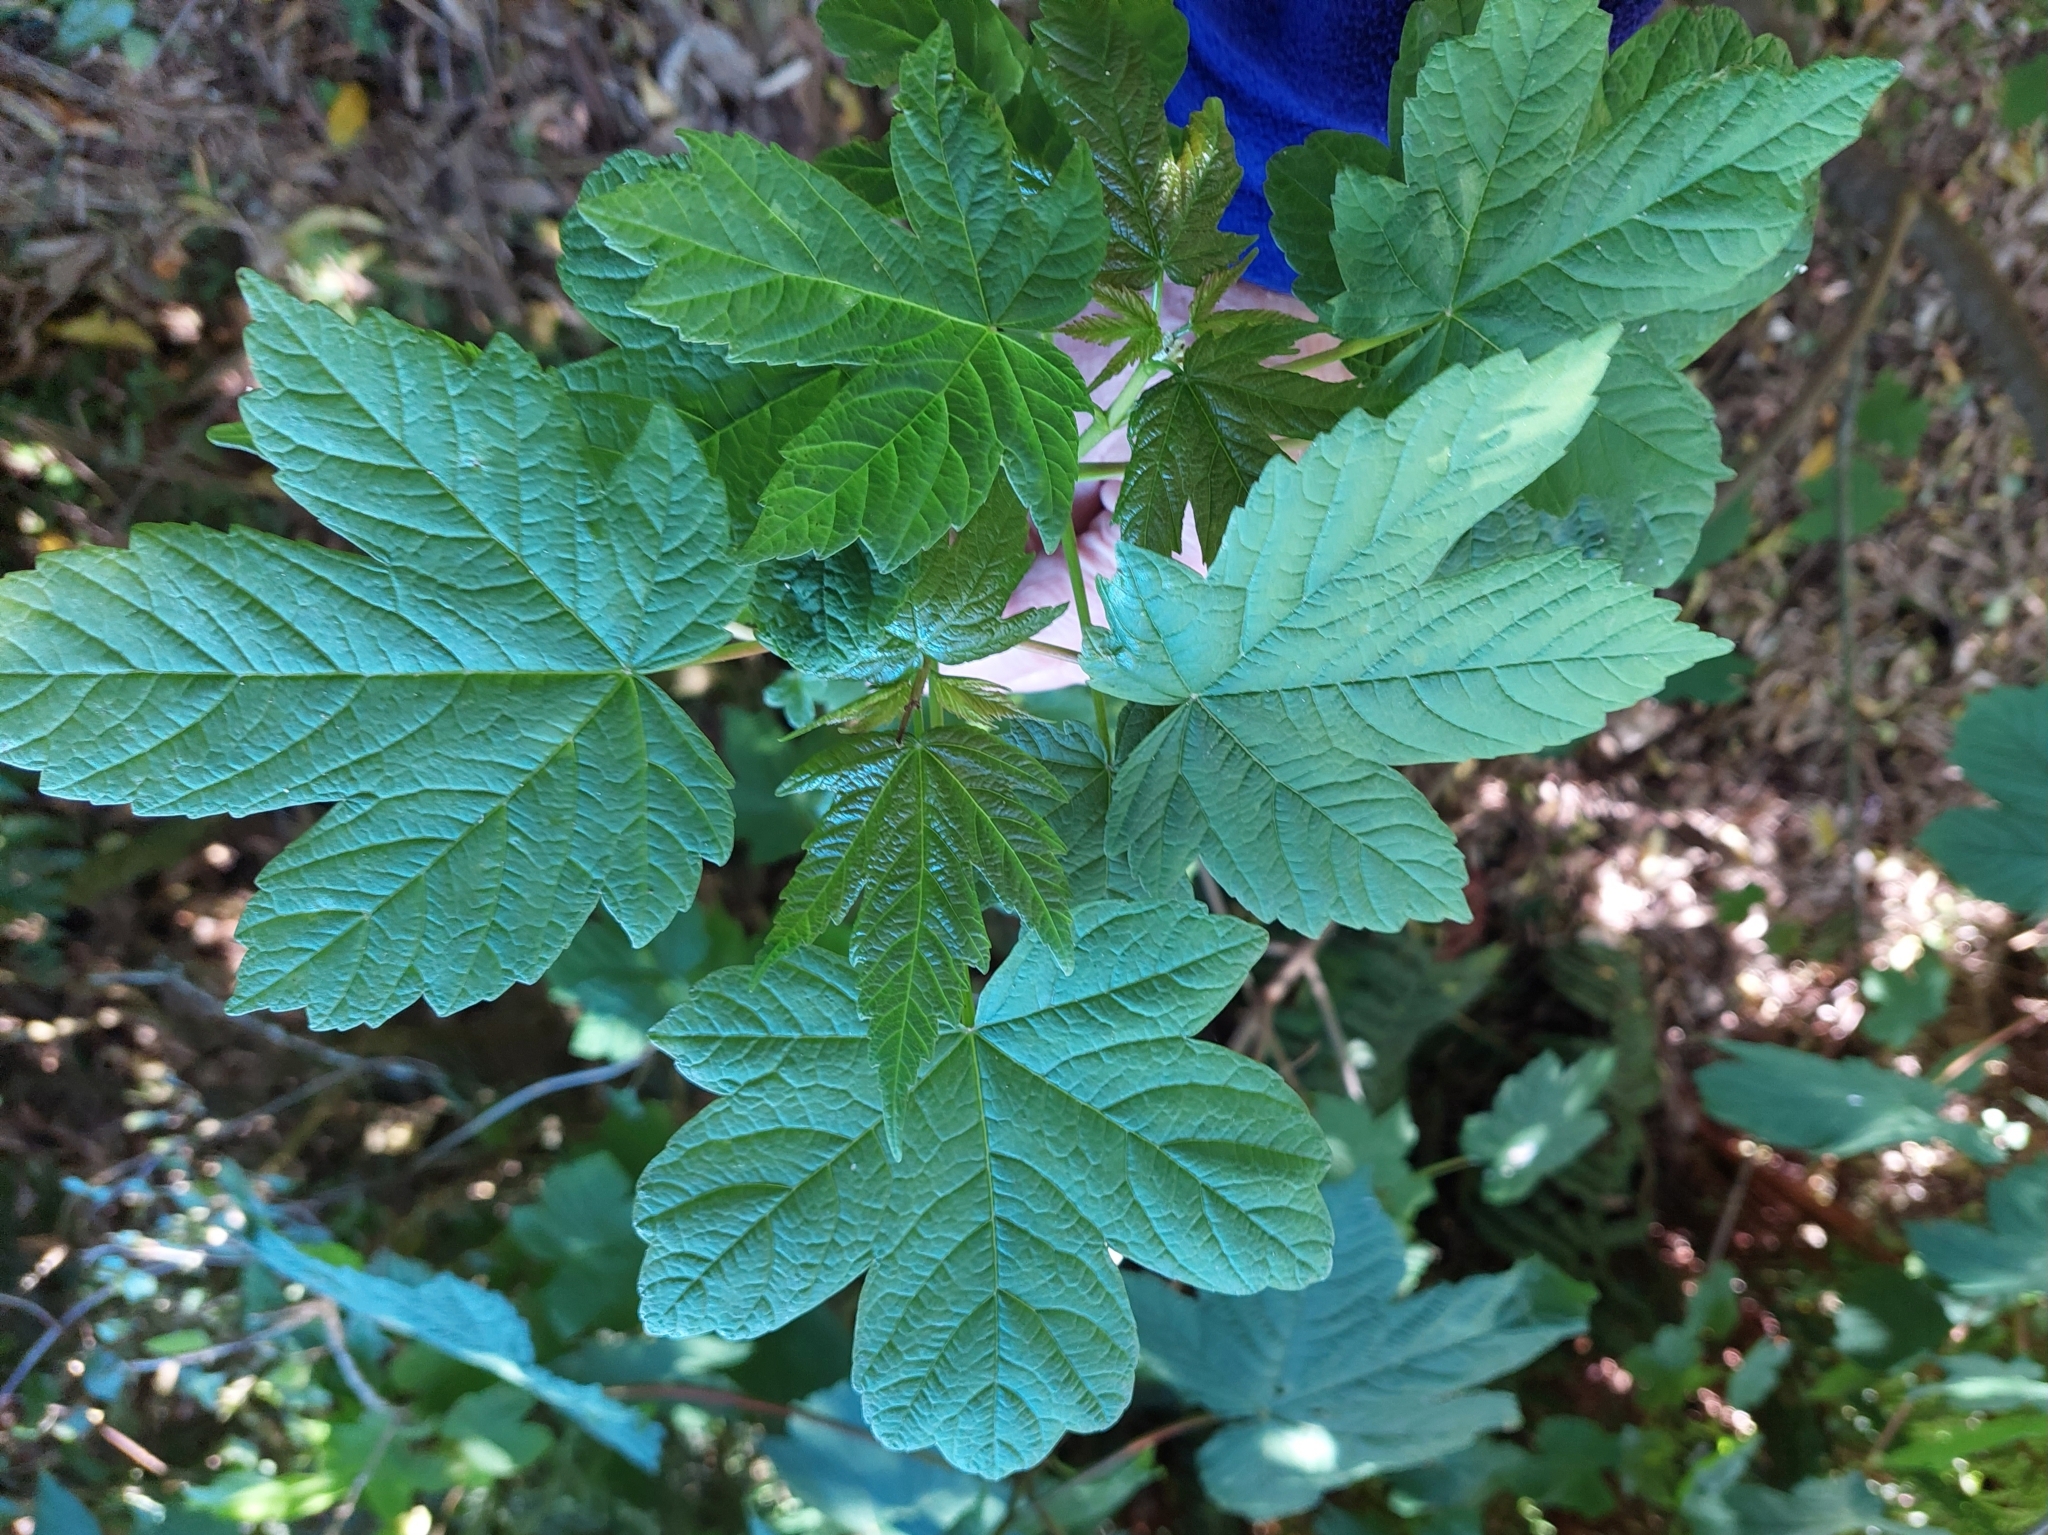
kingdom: Plantae
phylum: Tracheophyta
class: Magnoliopsida
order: Sapindales
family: Sapindaceae
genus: Acer
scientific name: Acer pseudoplatanus
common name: Sycamore
